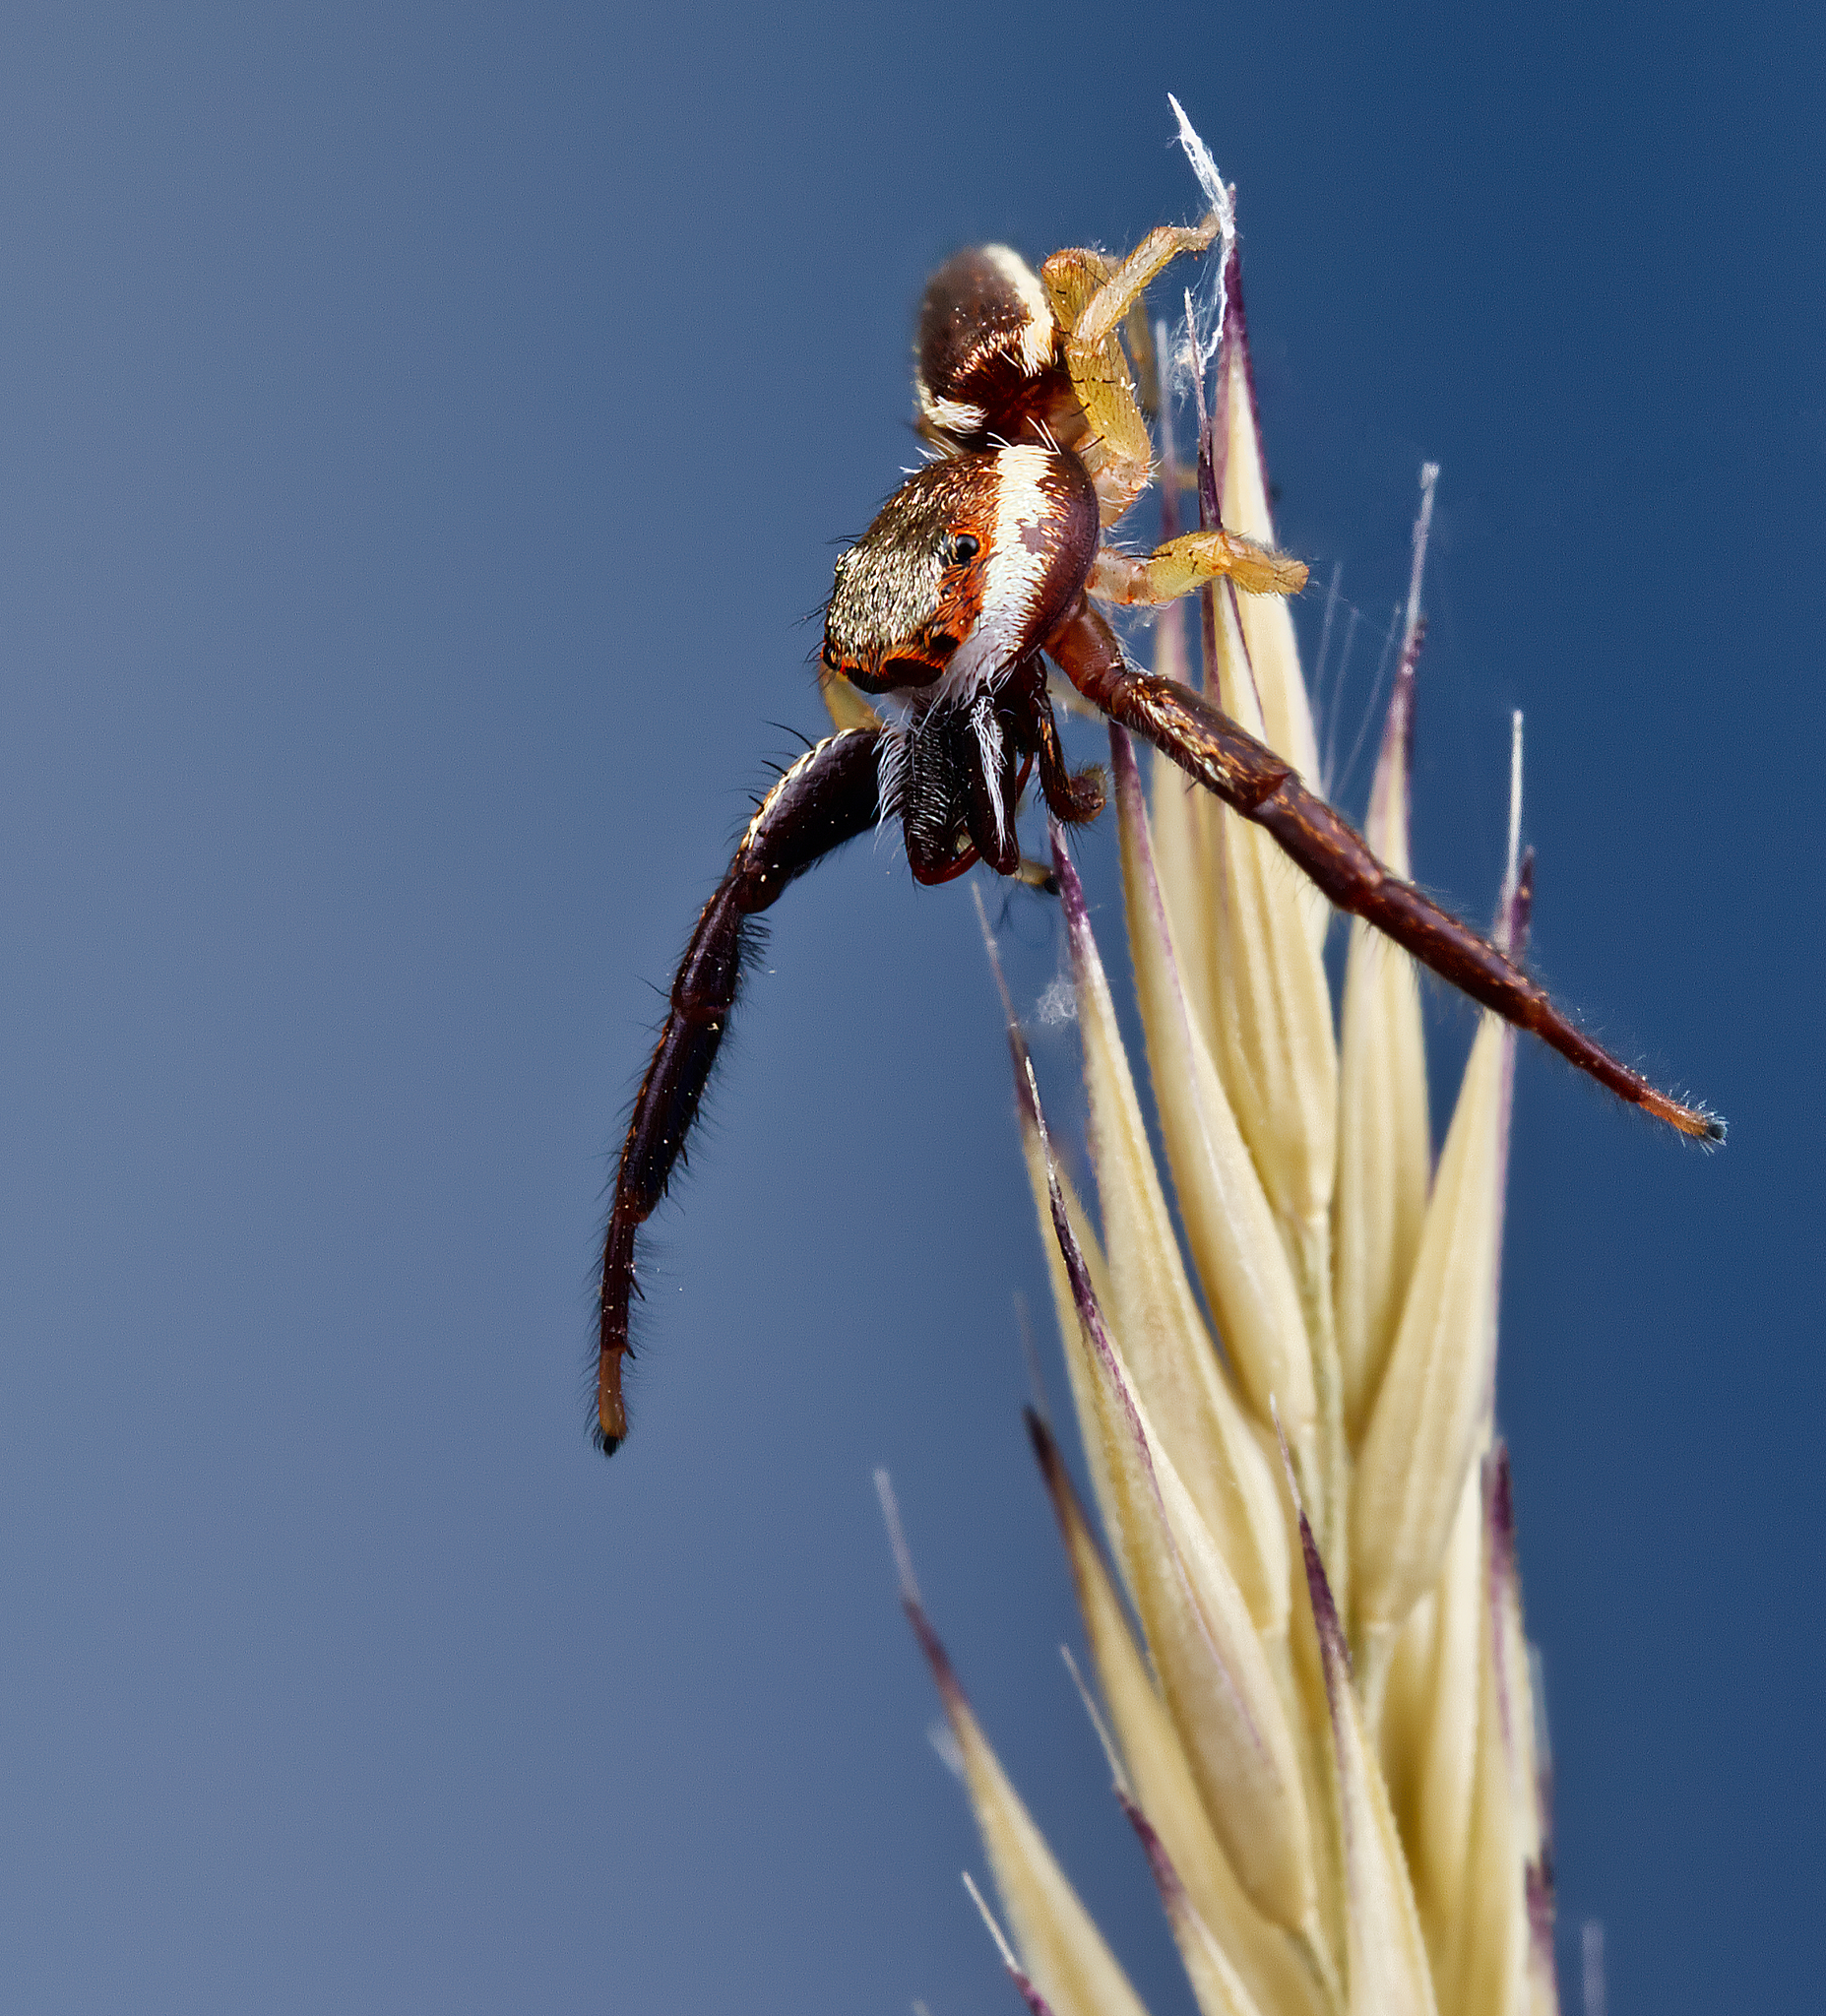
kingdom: Animalia
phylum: Arthropoda
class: Arachnida
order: Araneae
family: Salticidae
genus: Hentzia
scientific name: Hentzia palmarum
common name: Common hentz jumping spider
